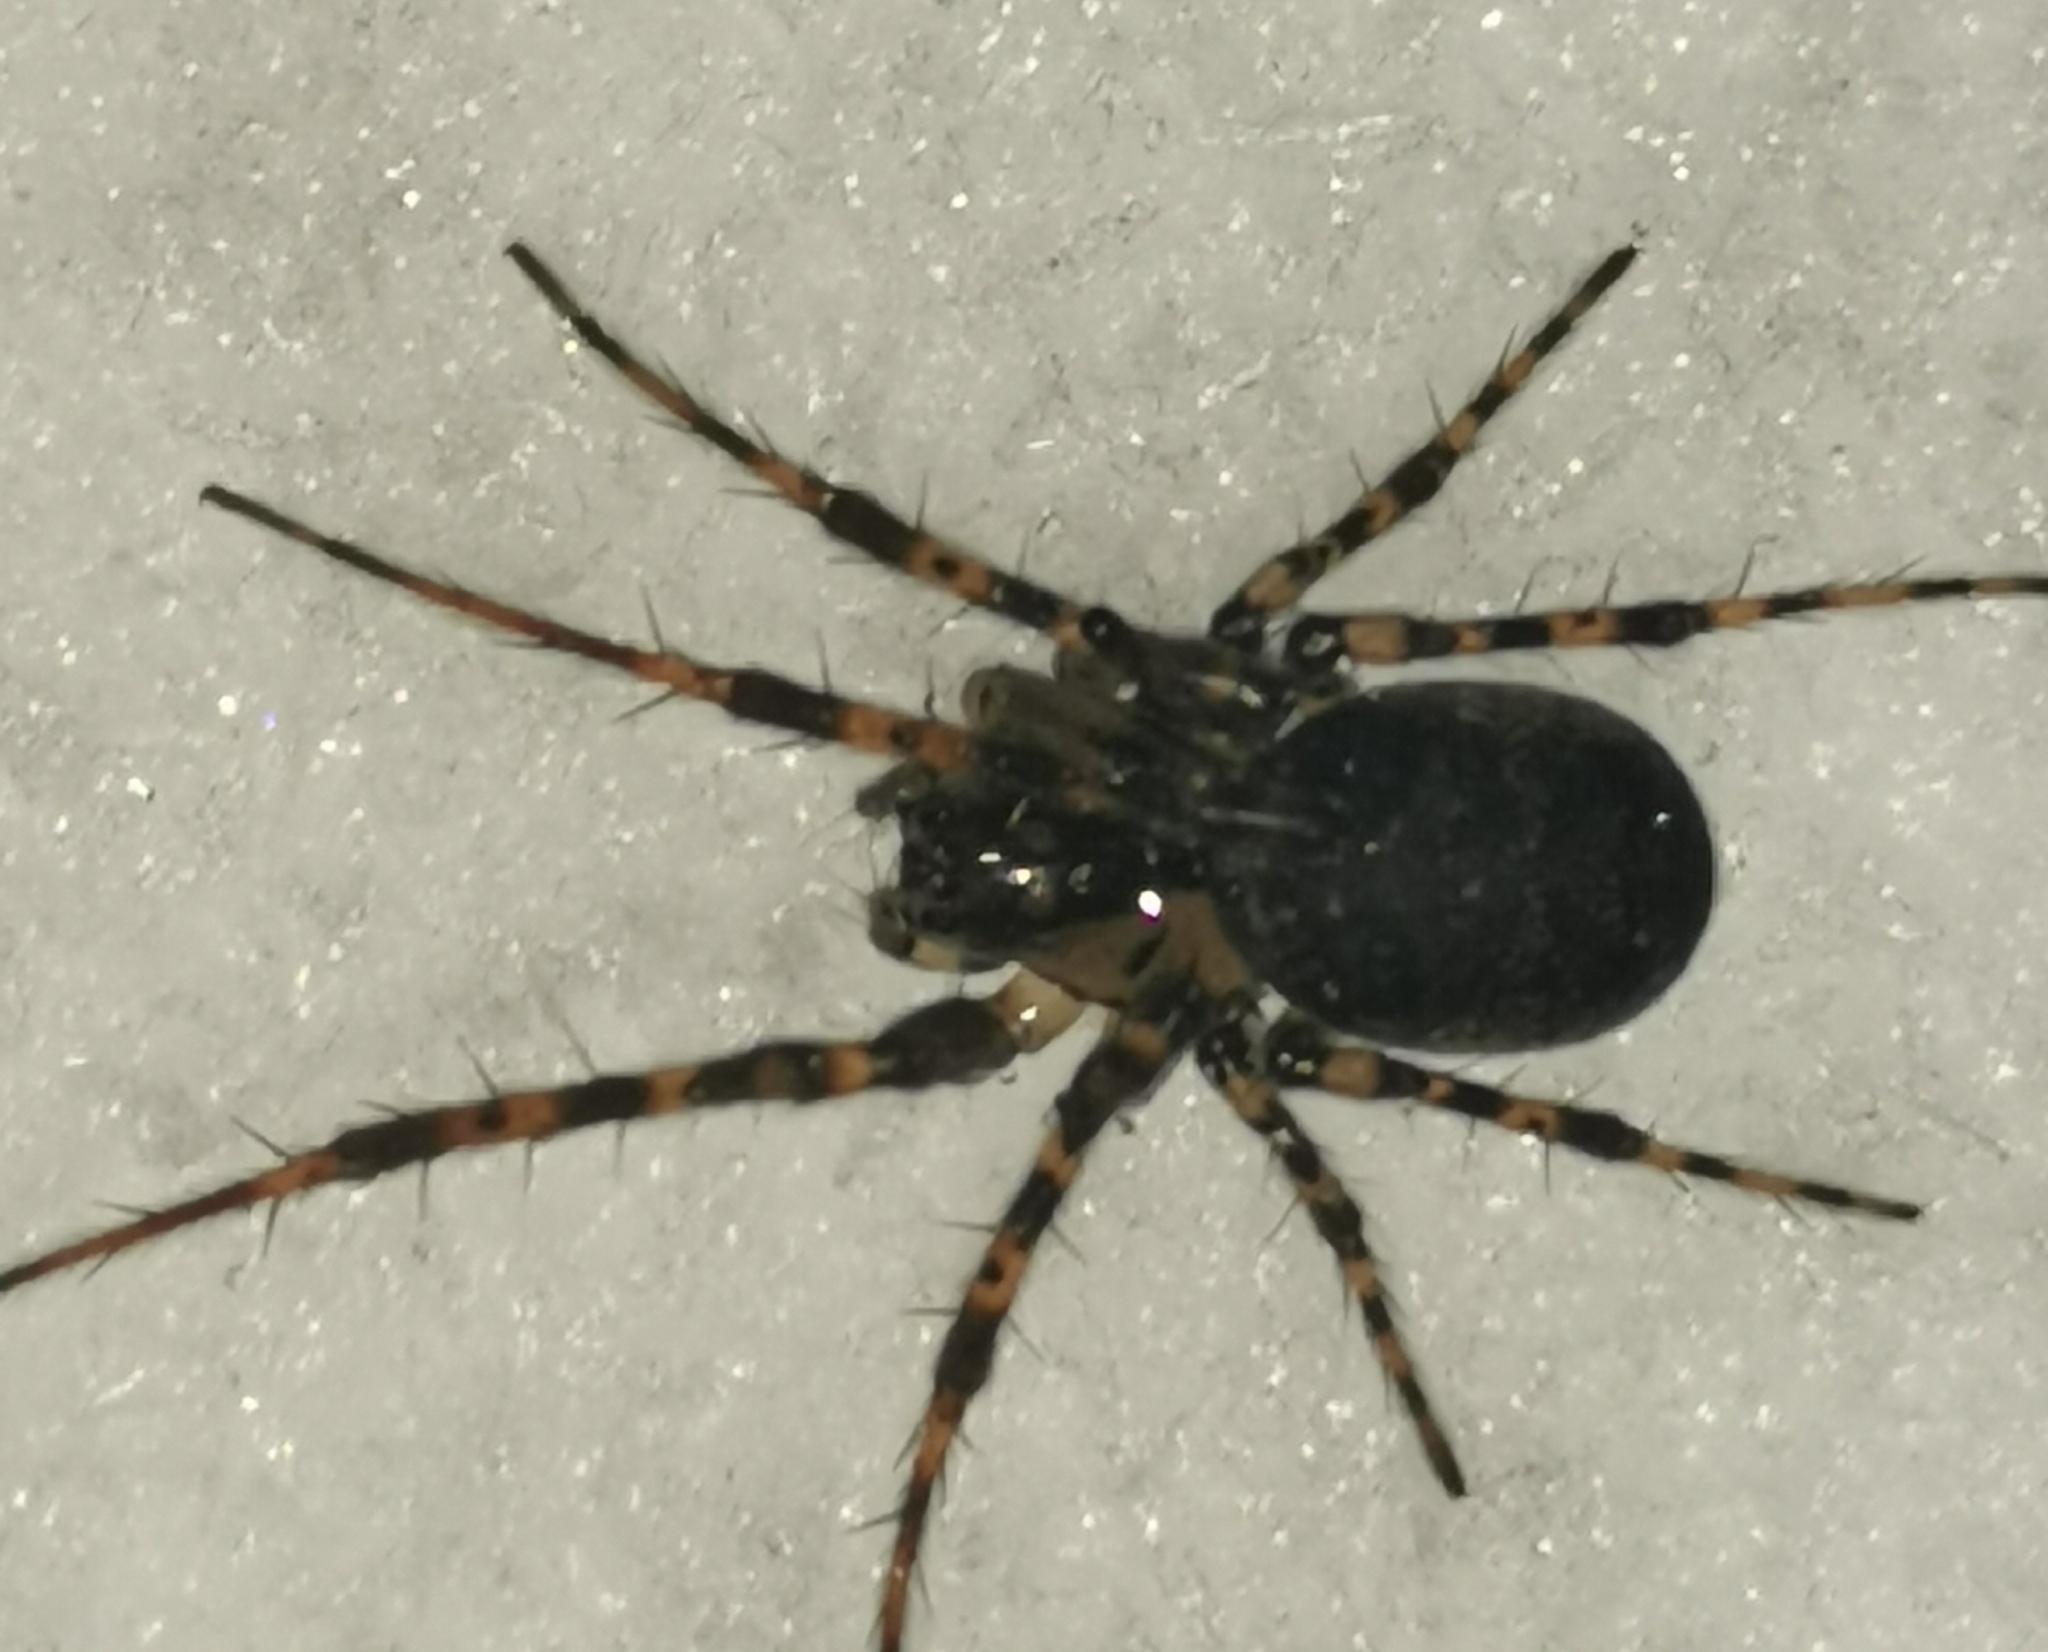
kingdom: Animalia
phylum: Arthropoda
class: Arachnida
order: Araneae
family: Tetragnathidae
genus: Metellina
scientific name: Metellina merianae
